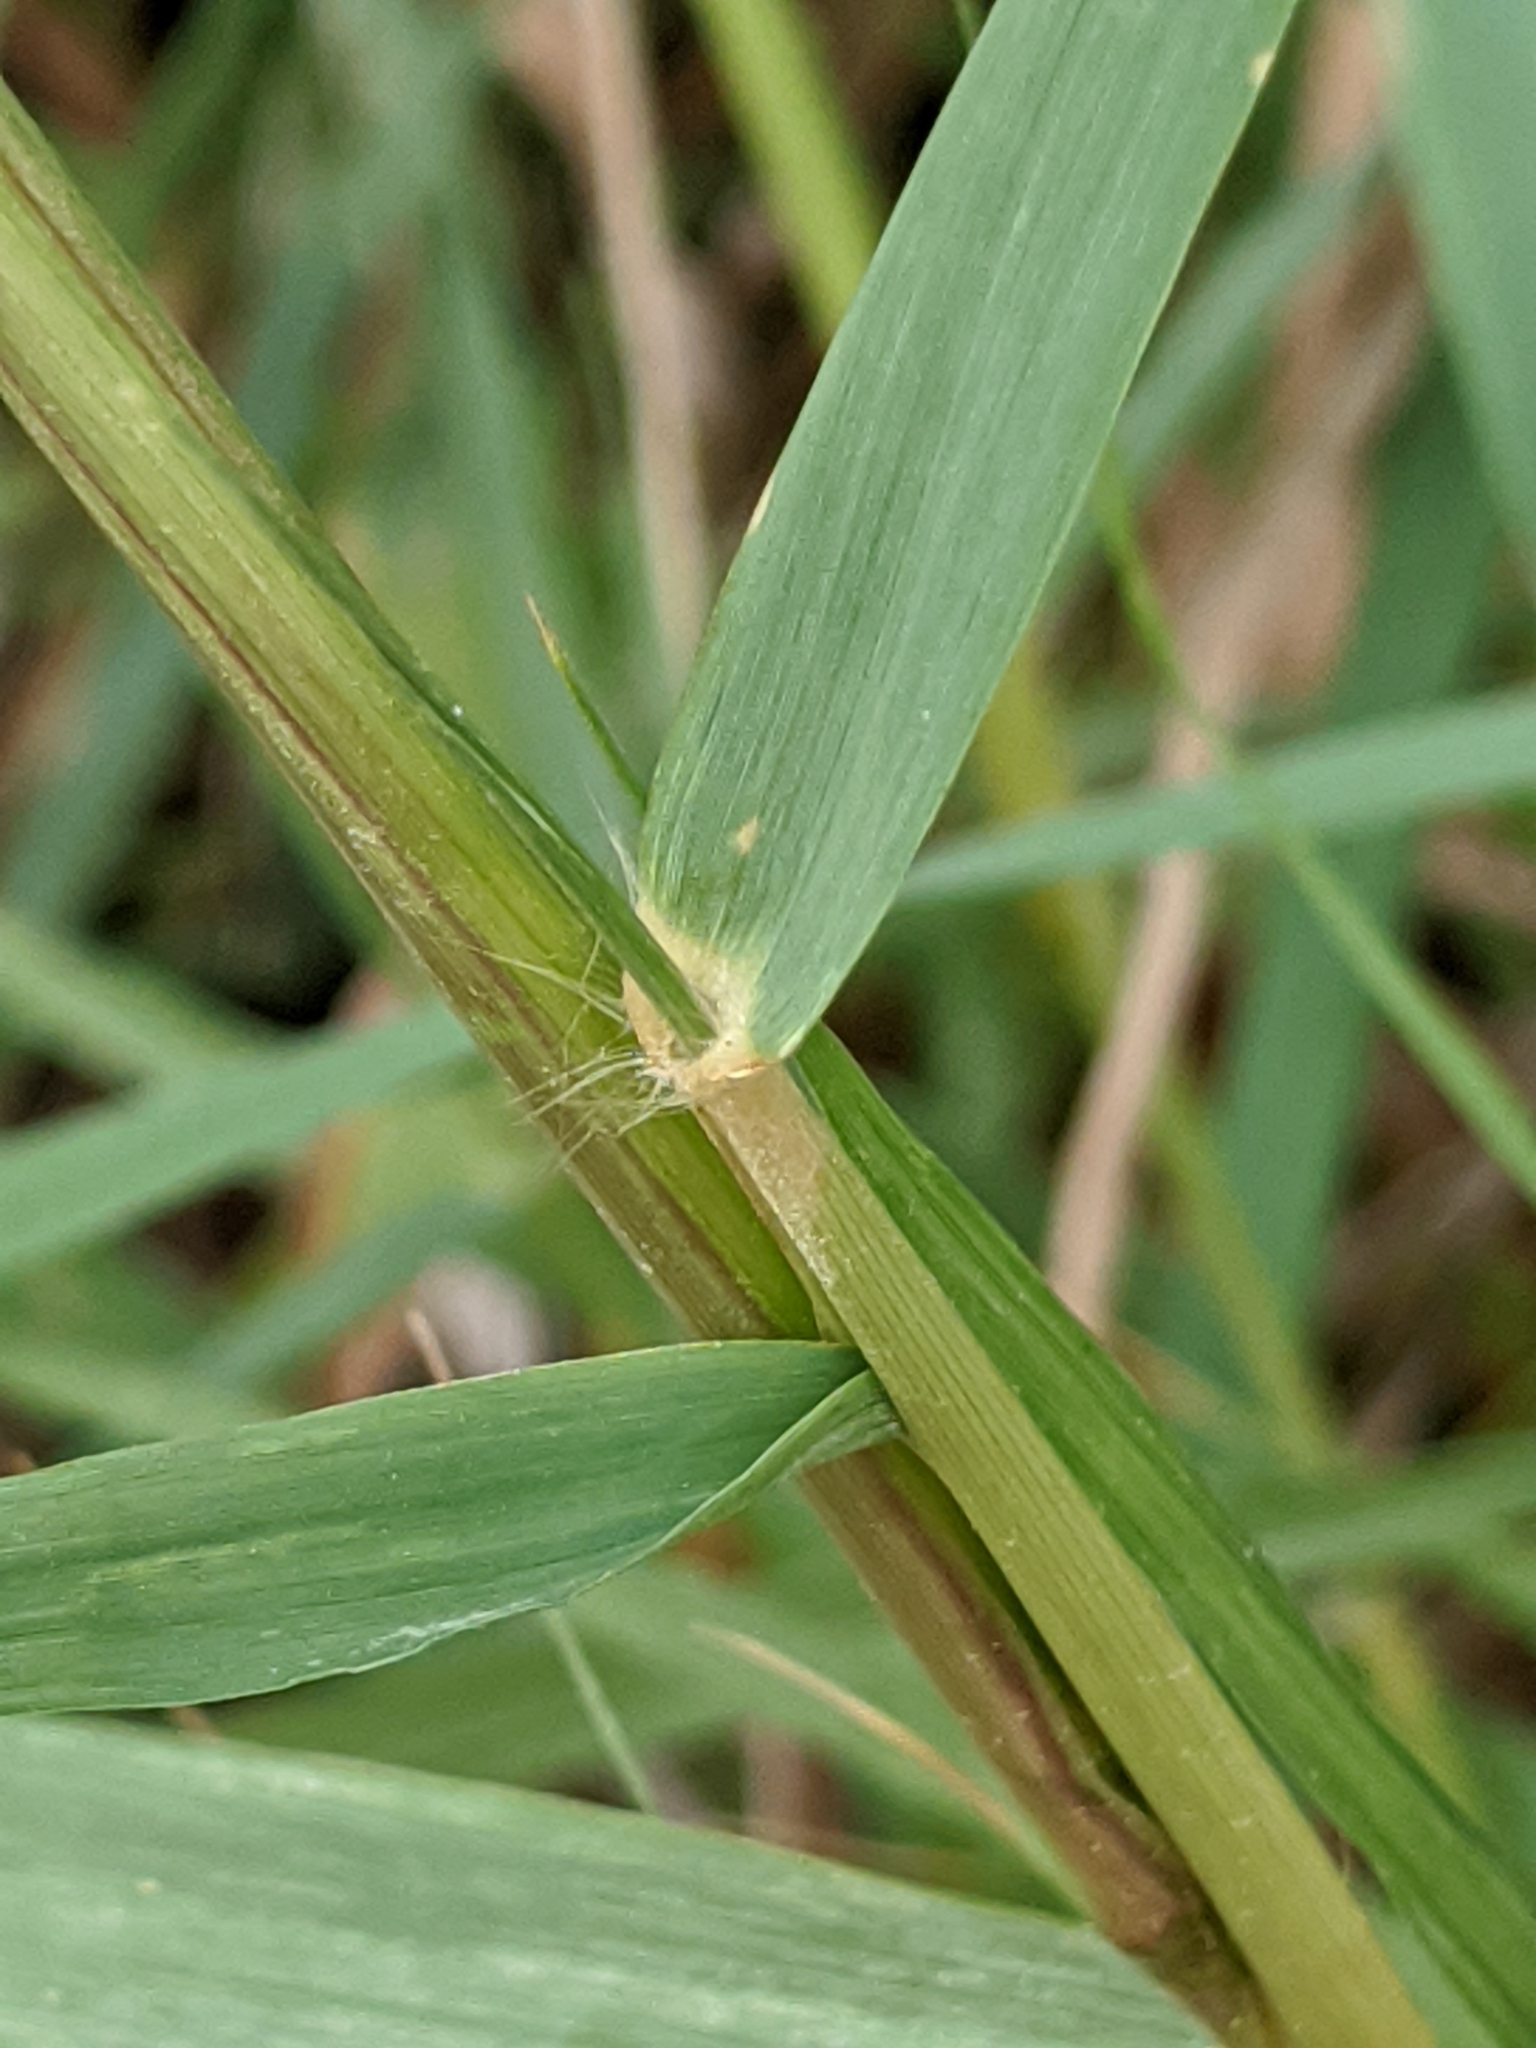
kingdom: Plantae
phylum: Tracheophyta
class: Liliopsida
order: Poales
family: Poaceae
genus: Eragrostis
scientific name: Eragrostis curtipedicellata
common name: Gummy love grass
